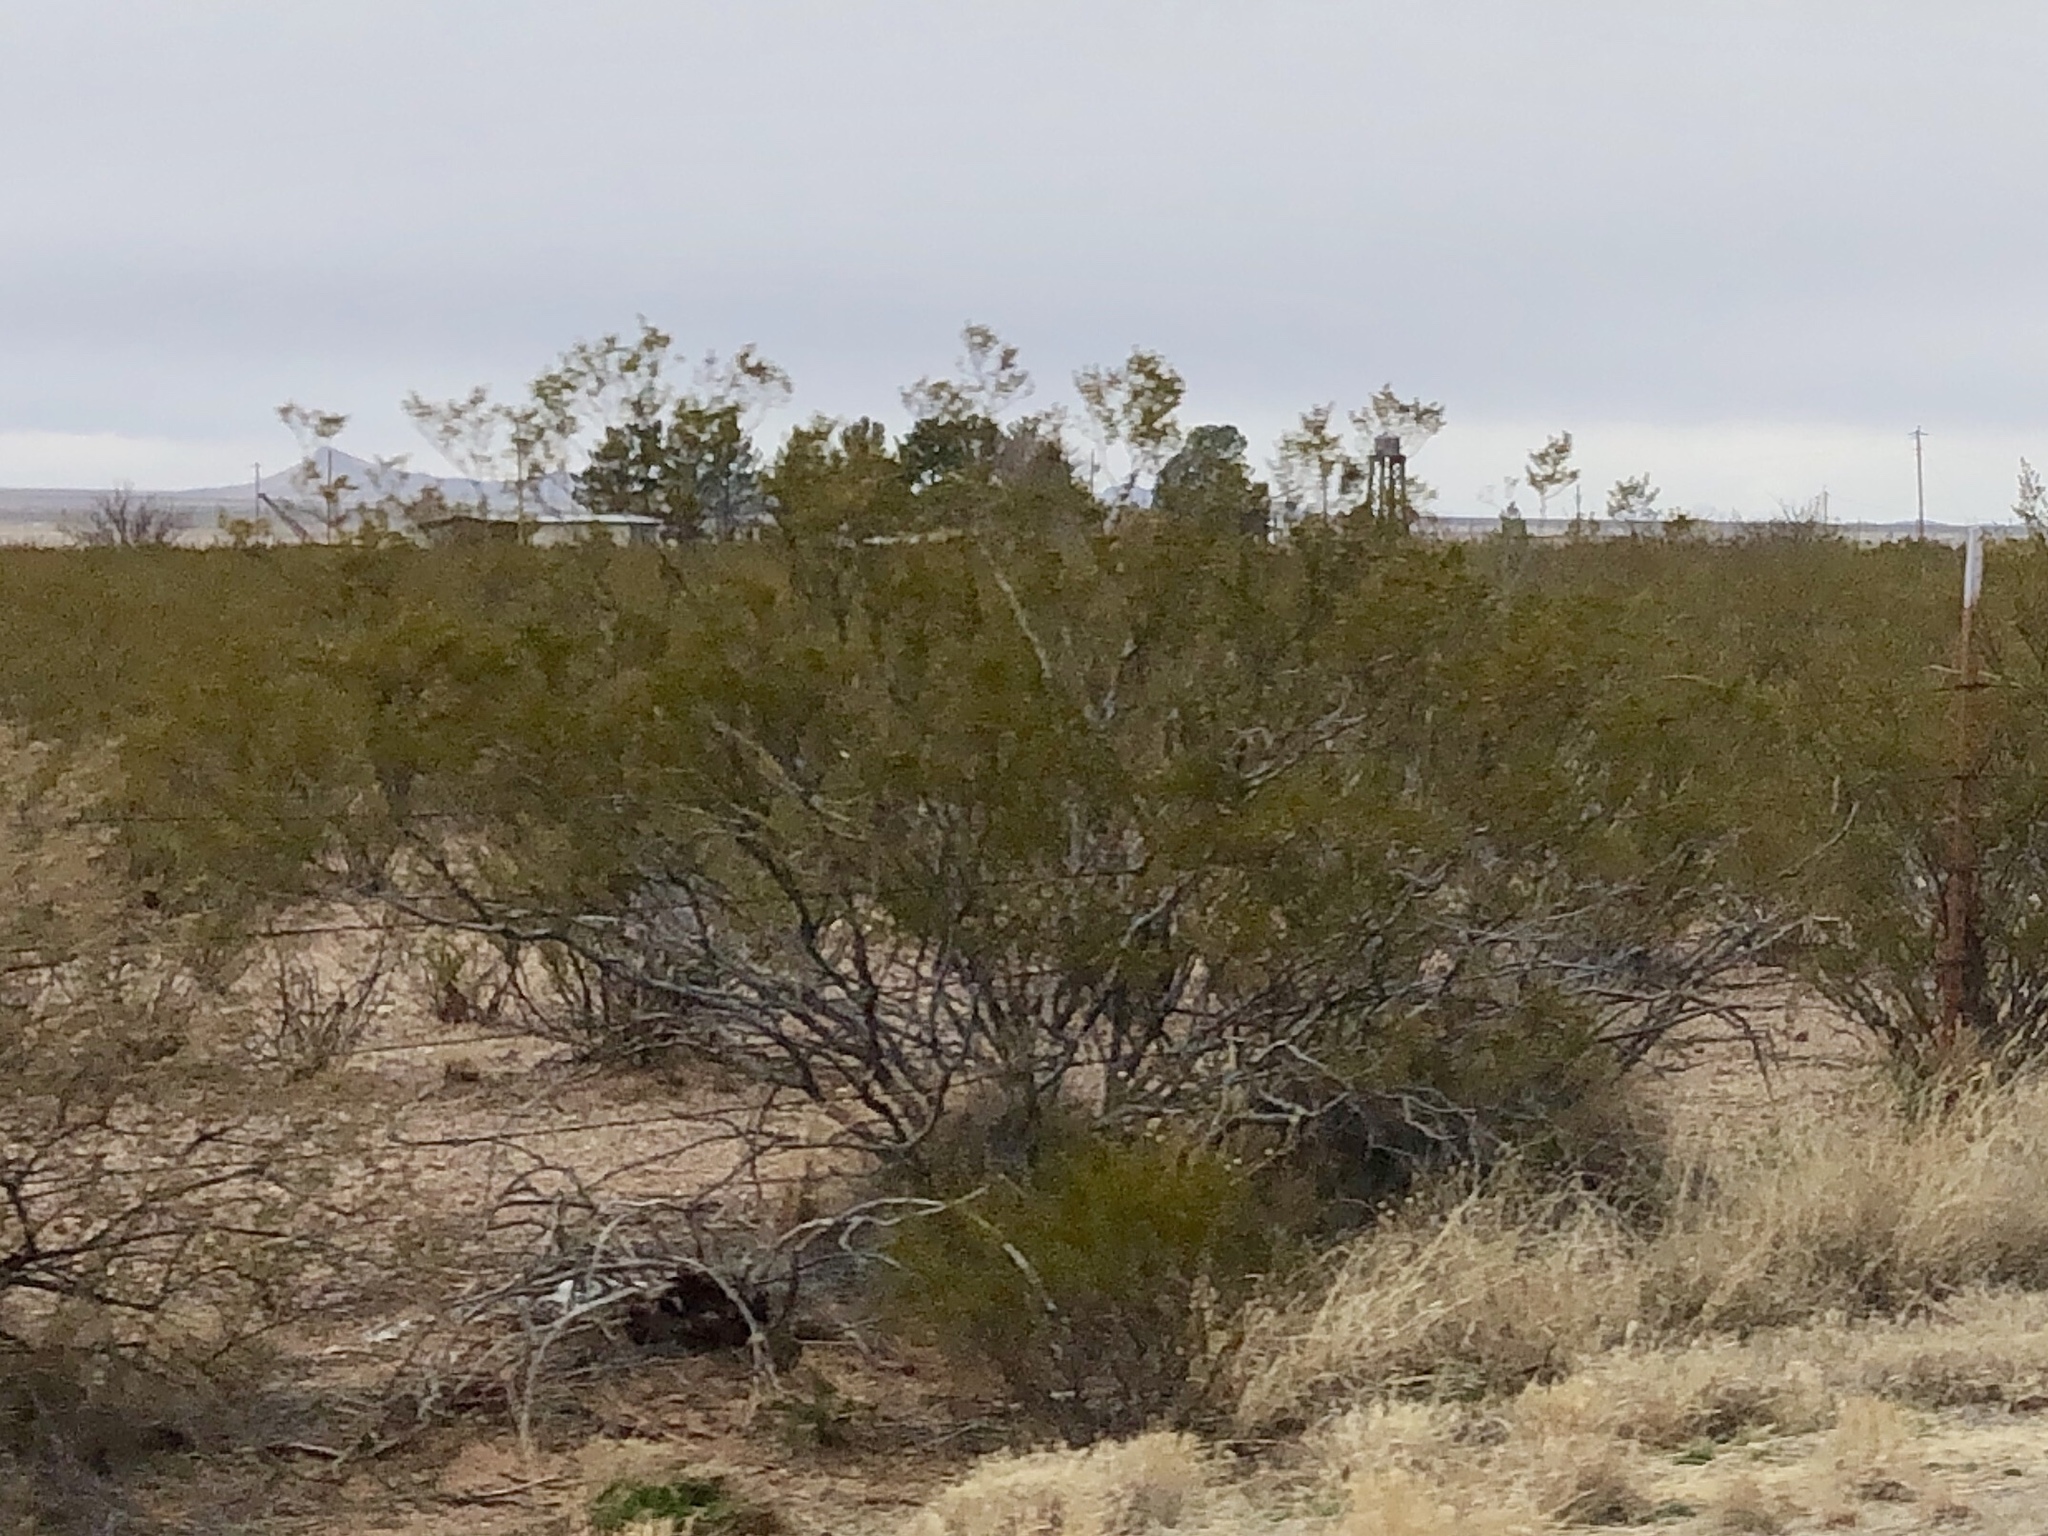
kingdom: Plantae
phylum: Tracheophyta
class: Magnoliopsida
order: Zygophyllales
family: Zygophyllaceae
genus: Larrea
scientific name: Larrea tridentata
